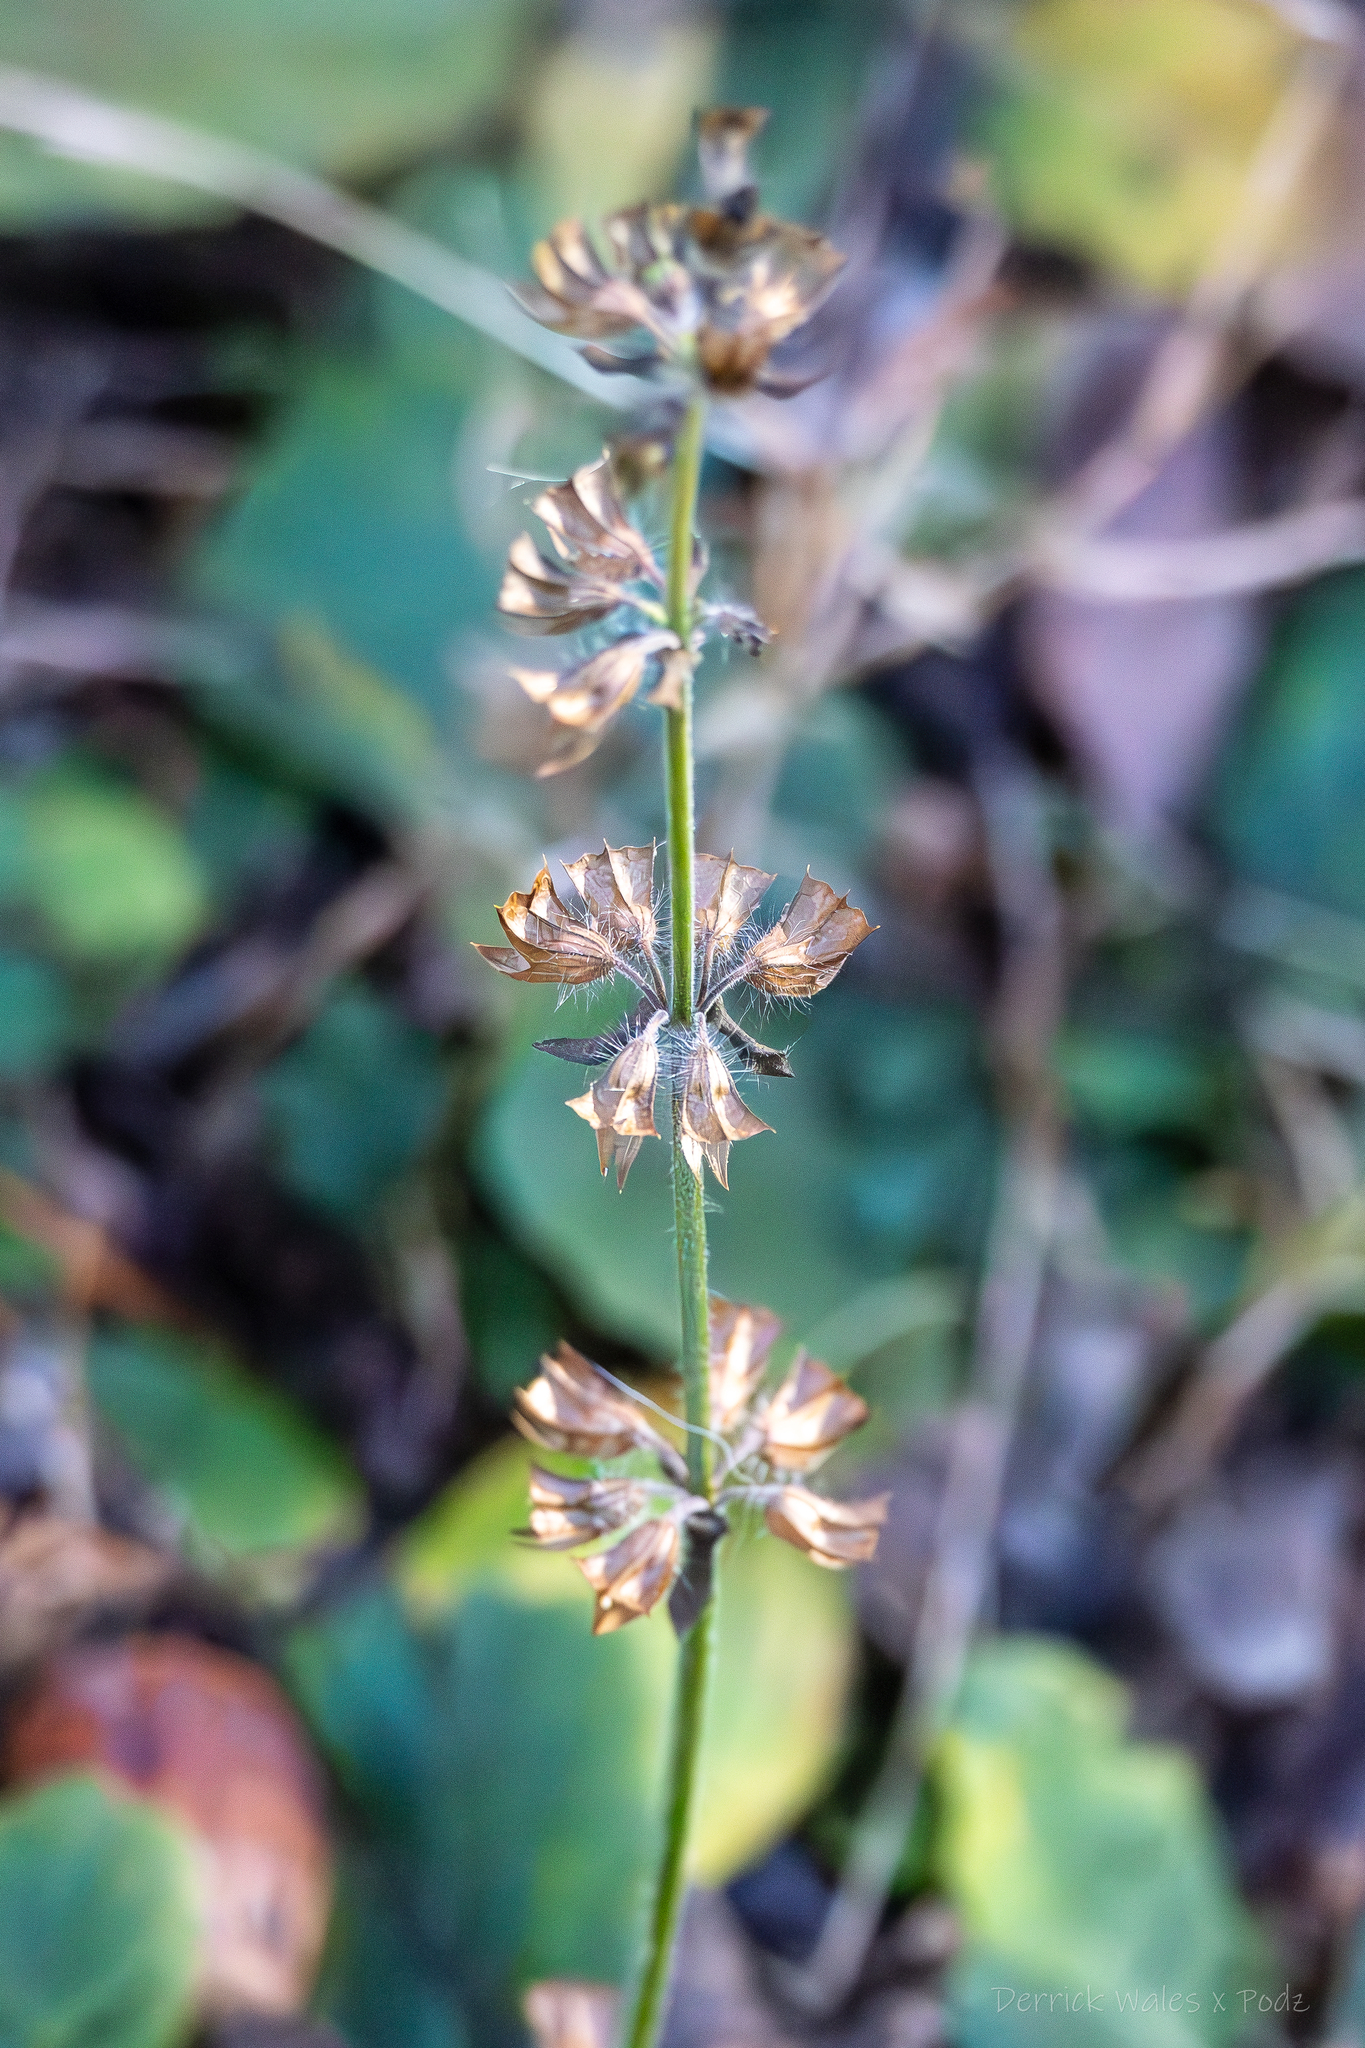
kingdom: Plantae
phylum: Tracheophyta
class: Magnoliopsida
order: Lamiales
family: Lamiaceae
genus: Salvia
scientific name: Salvia lyrata
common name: Cancerweed
